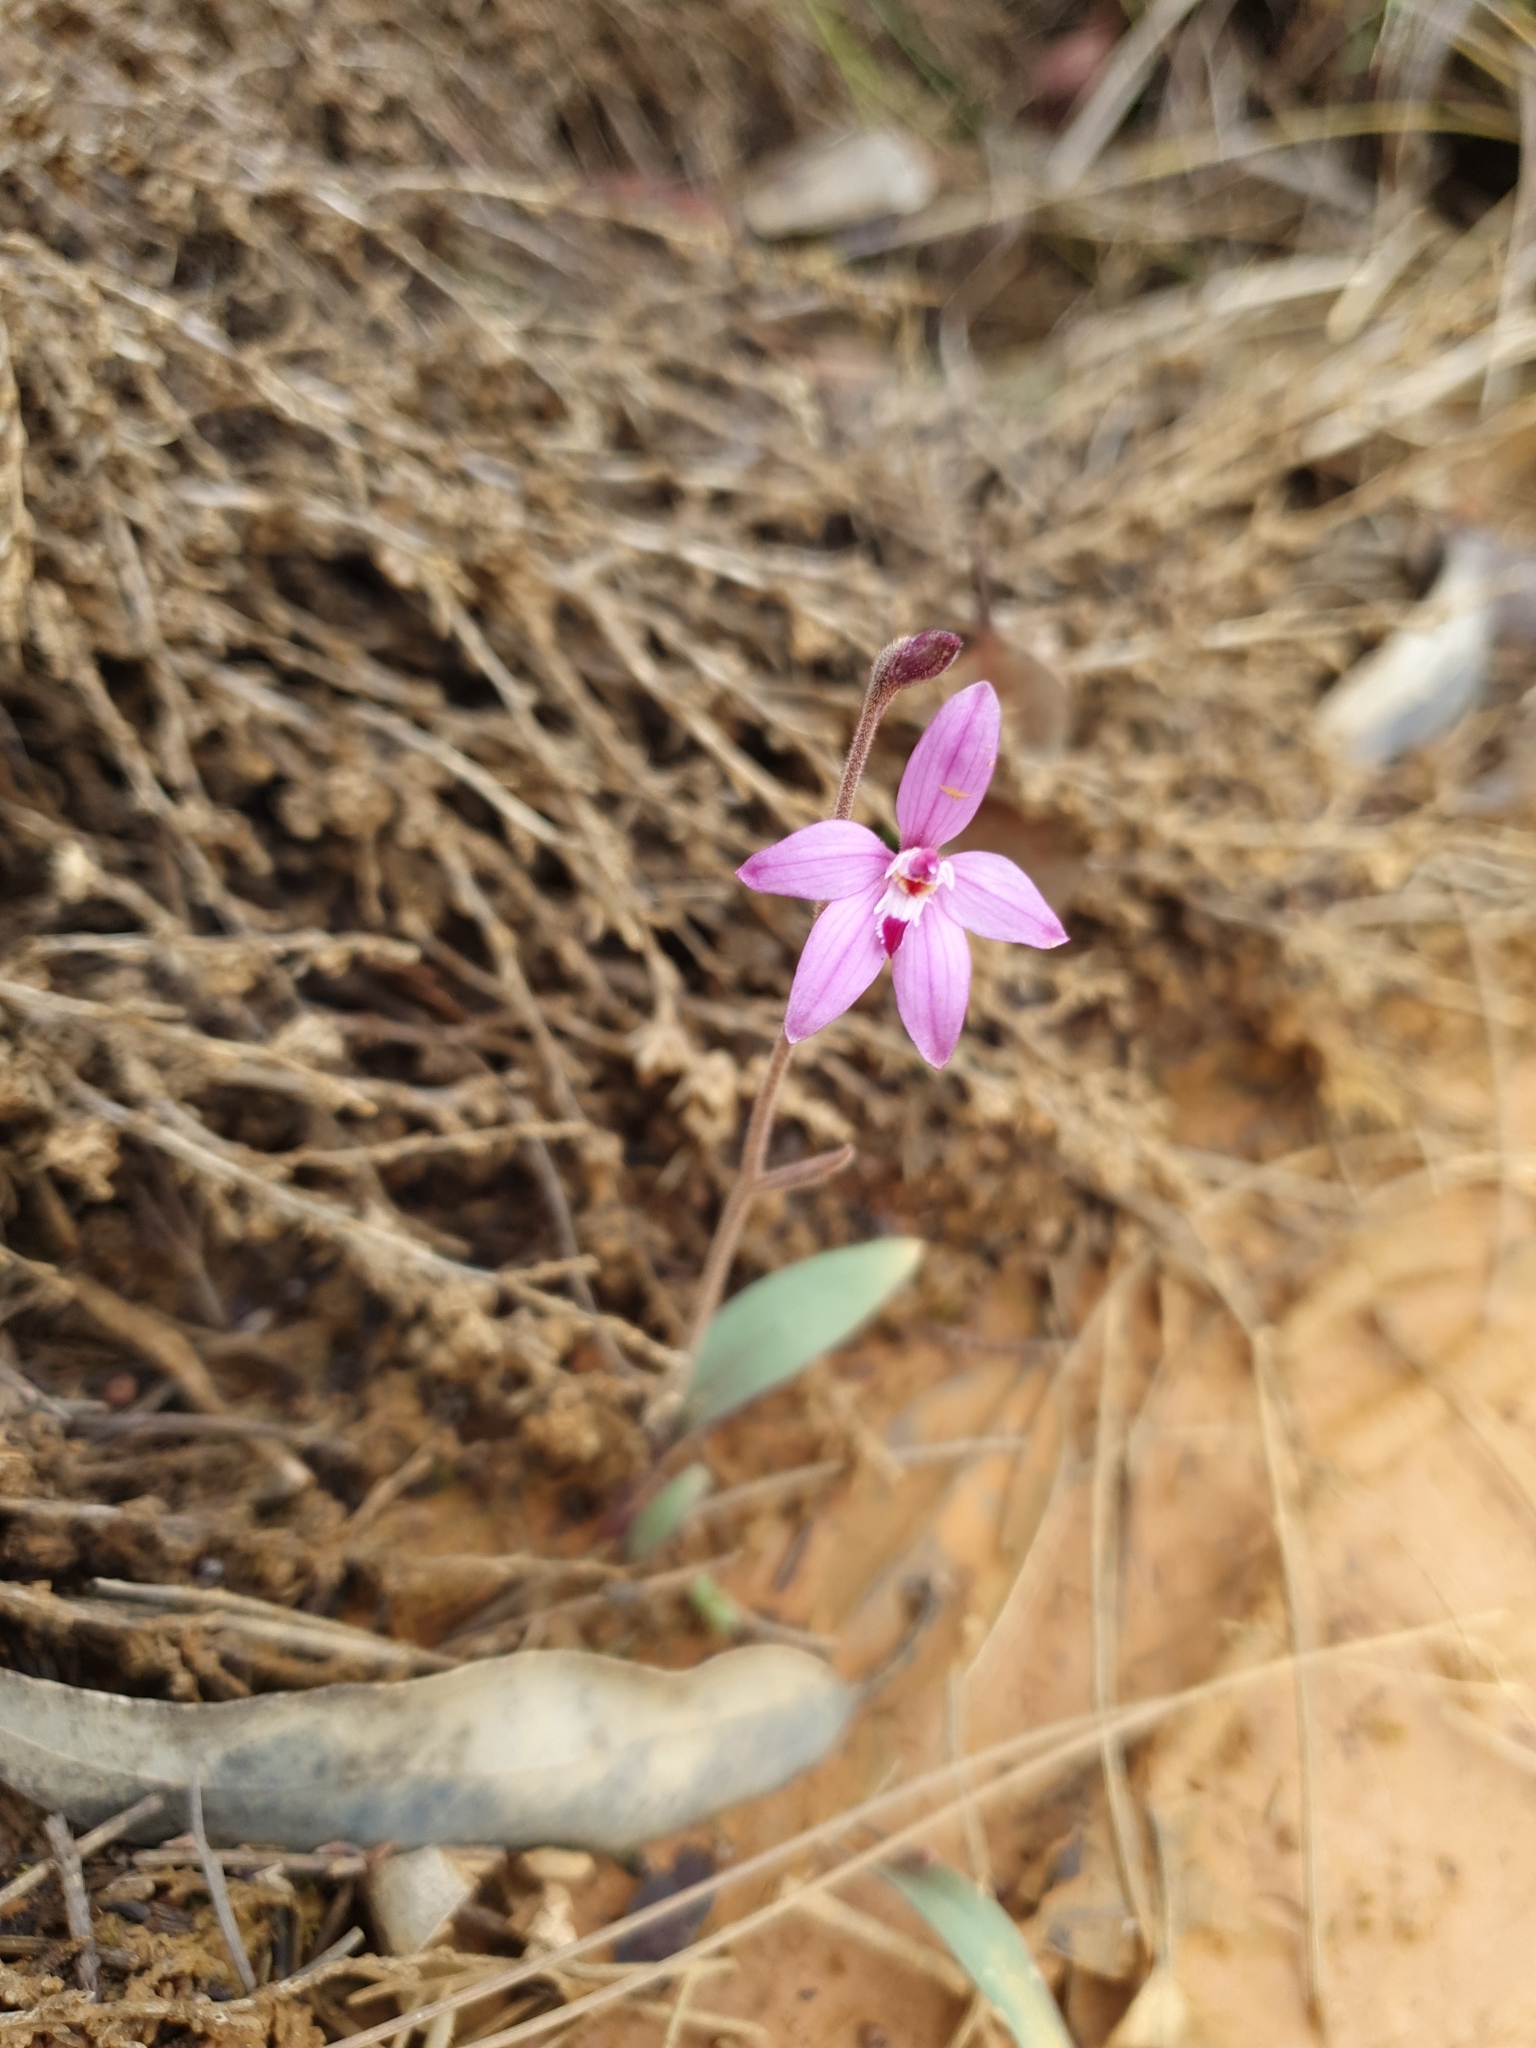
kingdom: Plantae
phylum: Tracheophyta
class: Liliopsida
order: Asparagales
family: Orchidaceae
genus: Caladenia
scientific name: Caladenia reptans
